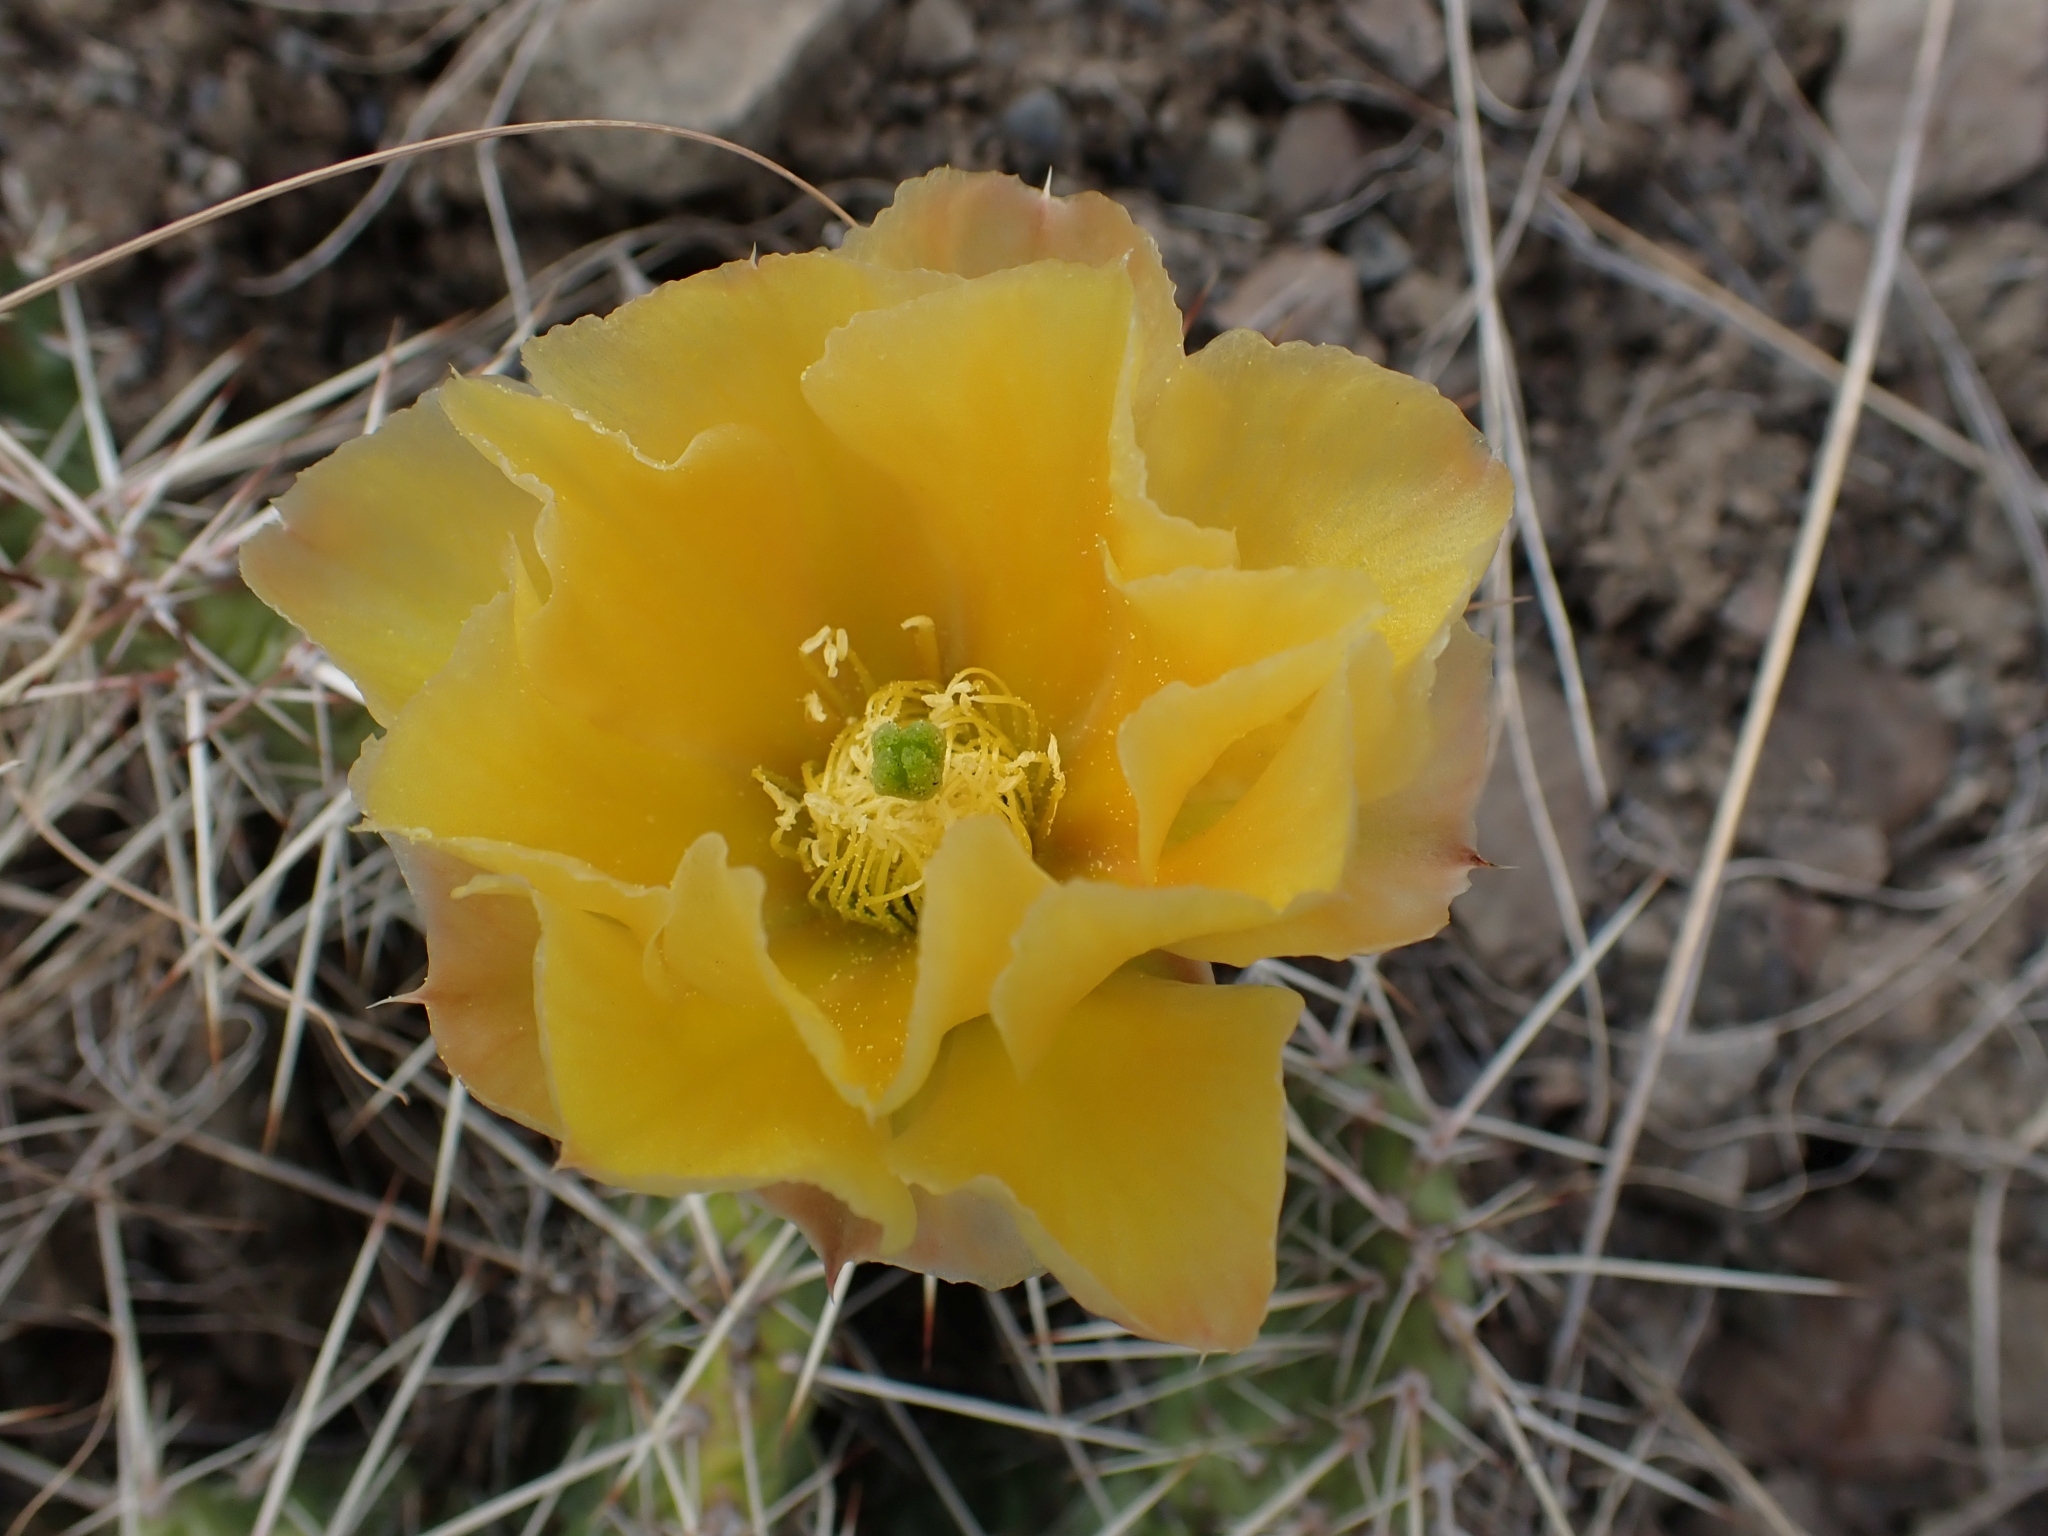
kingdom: Plantae
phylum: Tracheophyta
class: Magnoliopsida
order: Caryophyllales
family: Cactaceae
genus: Opuntia
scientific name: Opuntia columbiana
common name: Columbia prickly-pear
